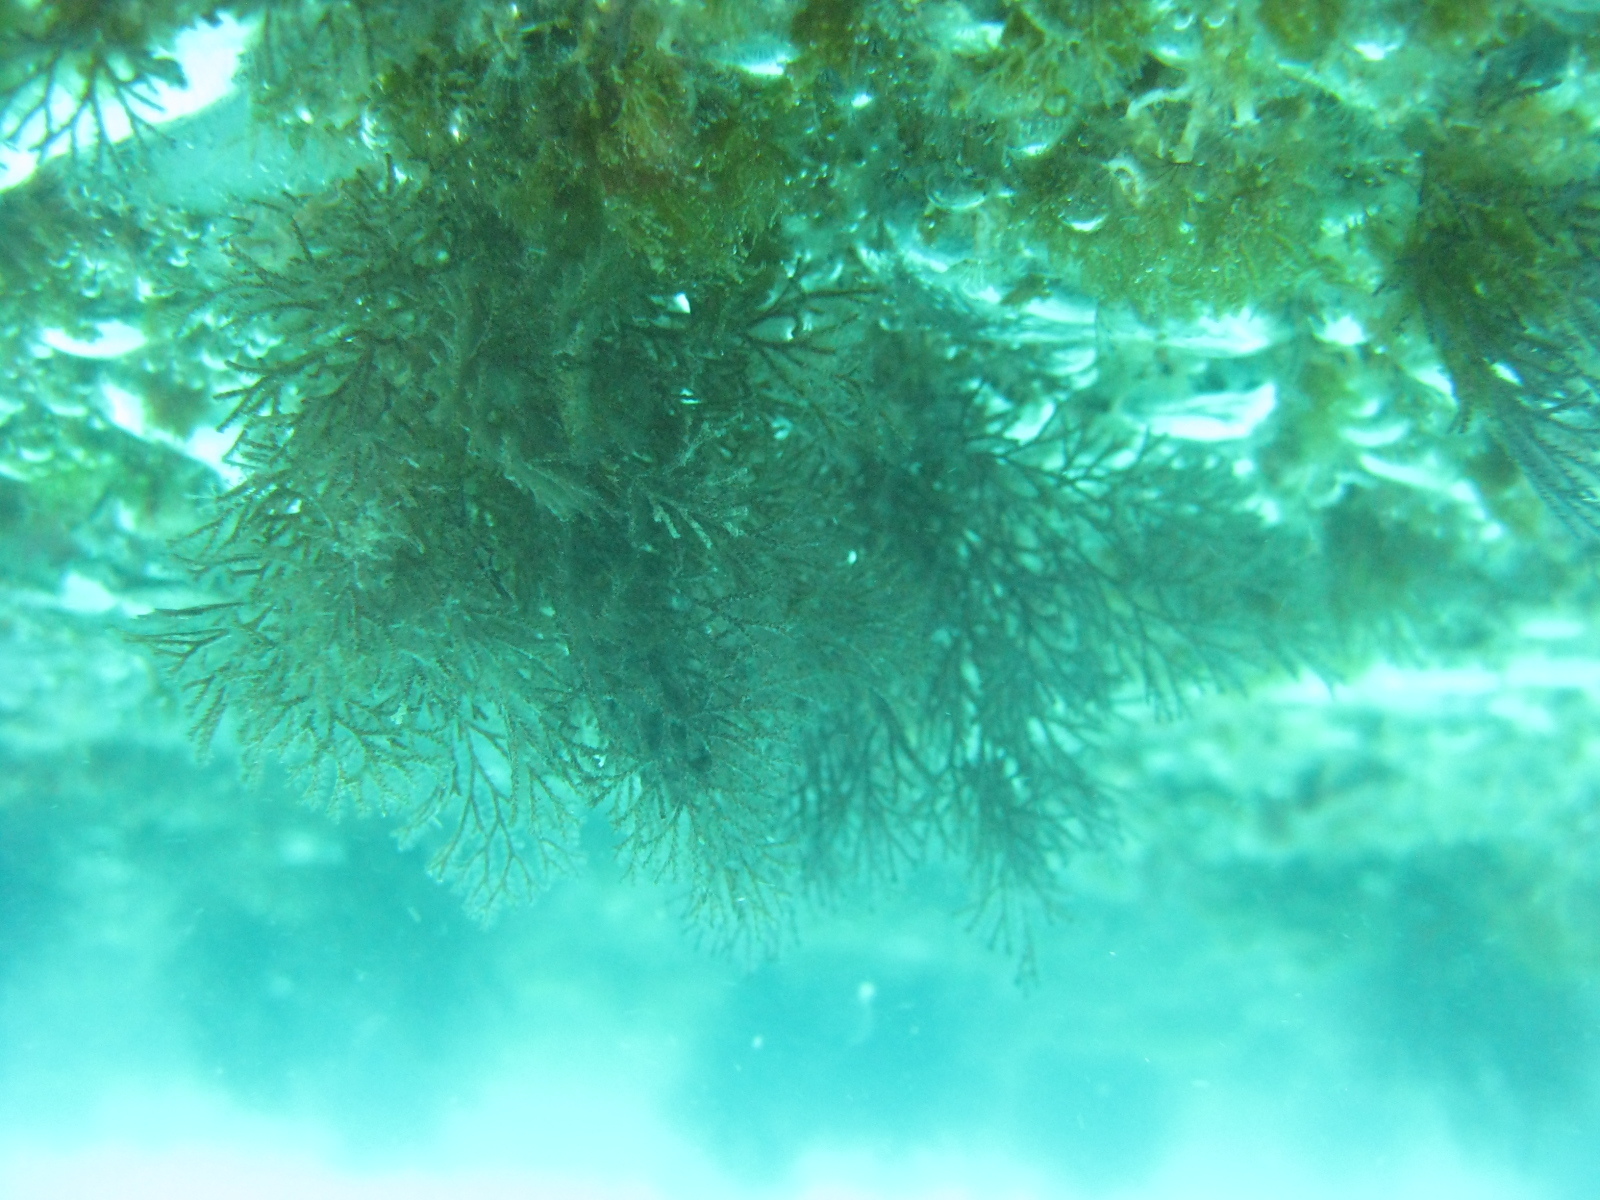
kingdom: Animalia
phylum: Bryozoa
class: Gymnolaemata
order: Cheilostomatida
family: Candidae
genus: Menipea
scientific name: Menipea vectifera
